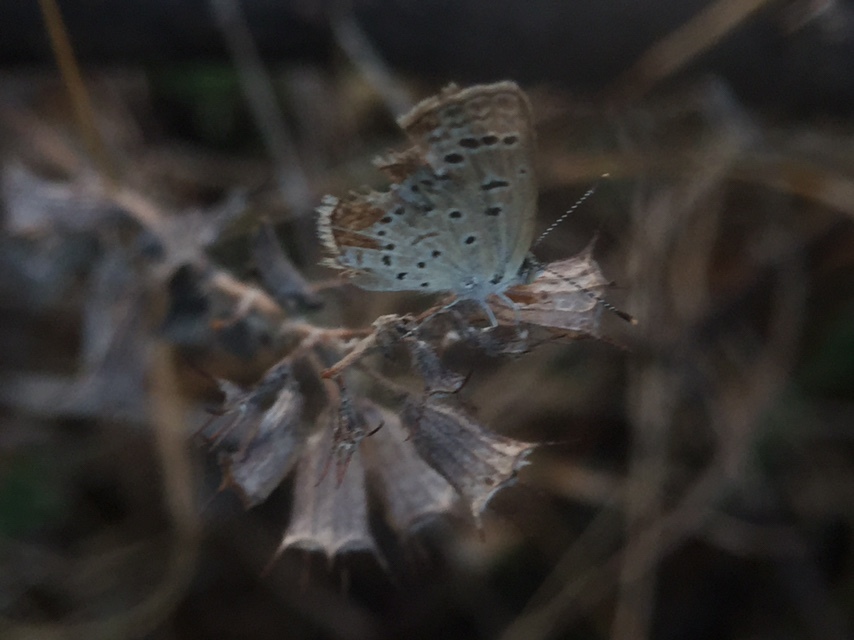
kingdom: Animalia
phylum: Arthropoda
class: Insecta
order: Lepidoptera
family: Lycaenidae
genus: Zizeeria
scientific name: Zizeeria karsandra
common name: Dark grass blue
